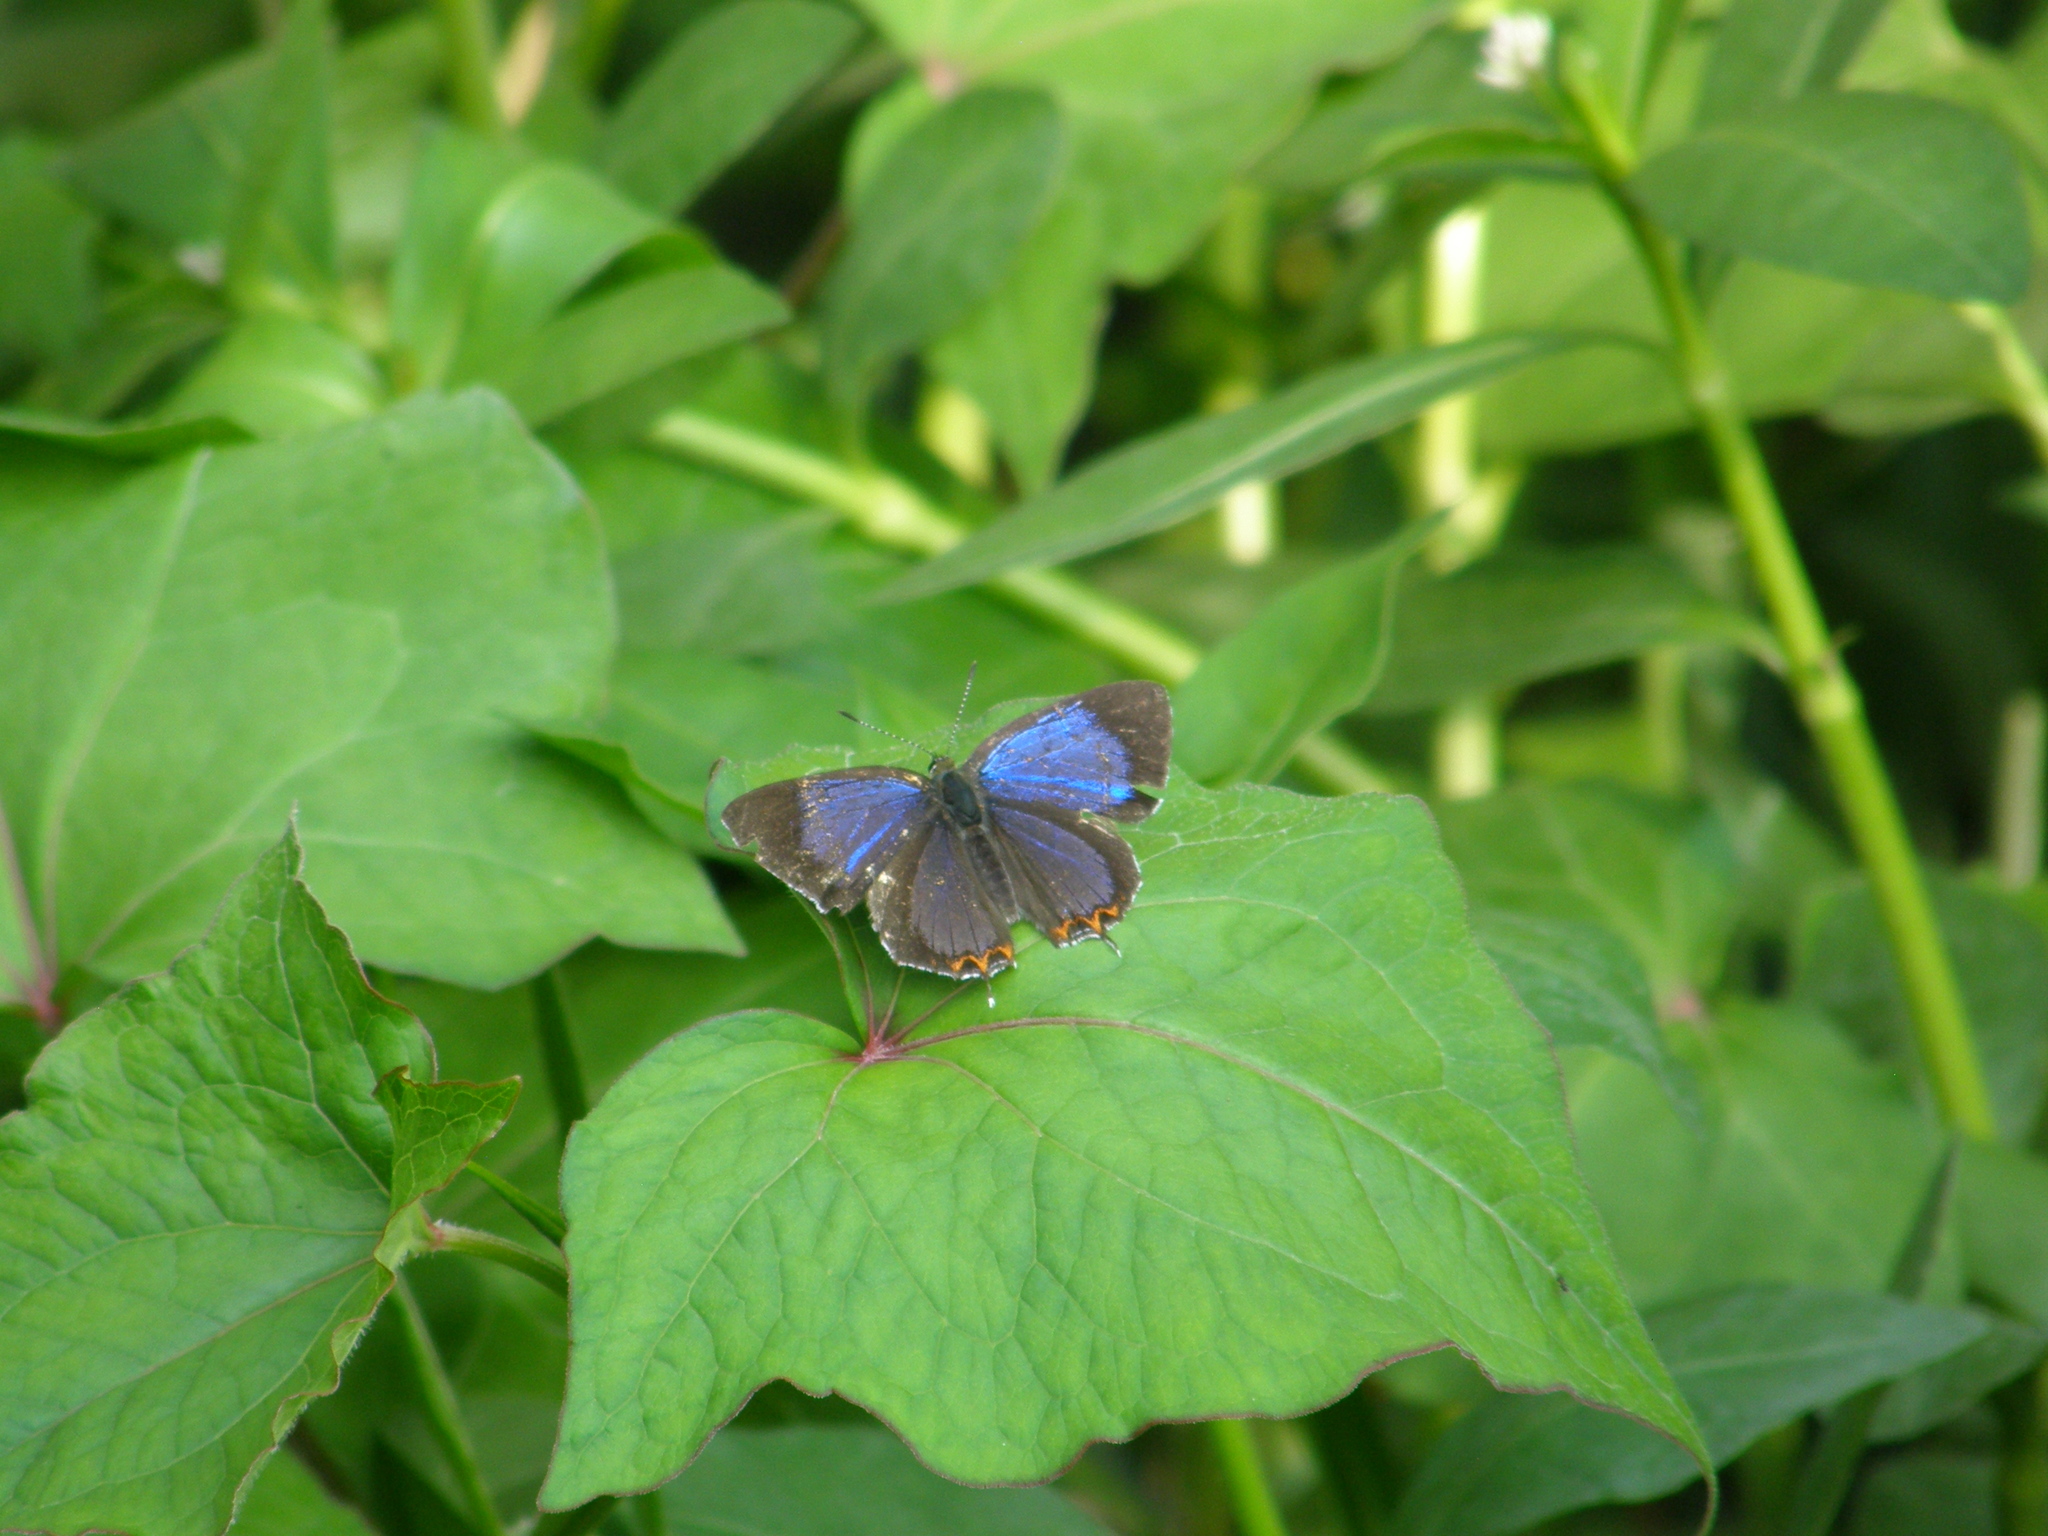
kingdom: Animalia
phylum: Arthropoda
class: Insecta
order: Lepidoptera
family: Lycaenidae
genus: Heliophorus
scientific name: Heliophorus saphir
